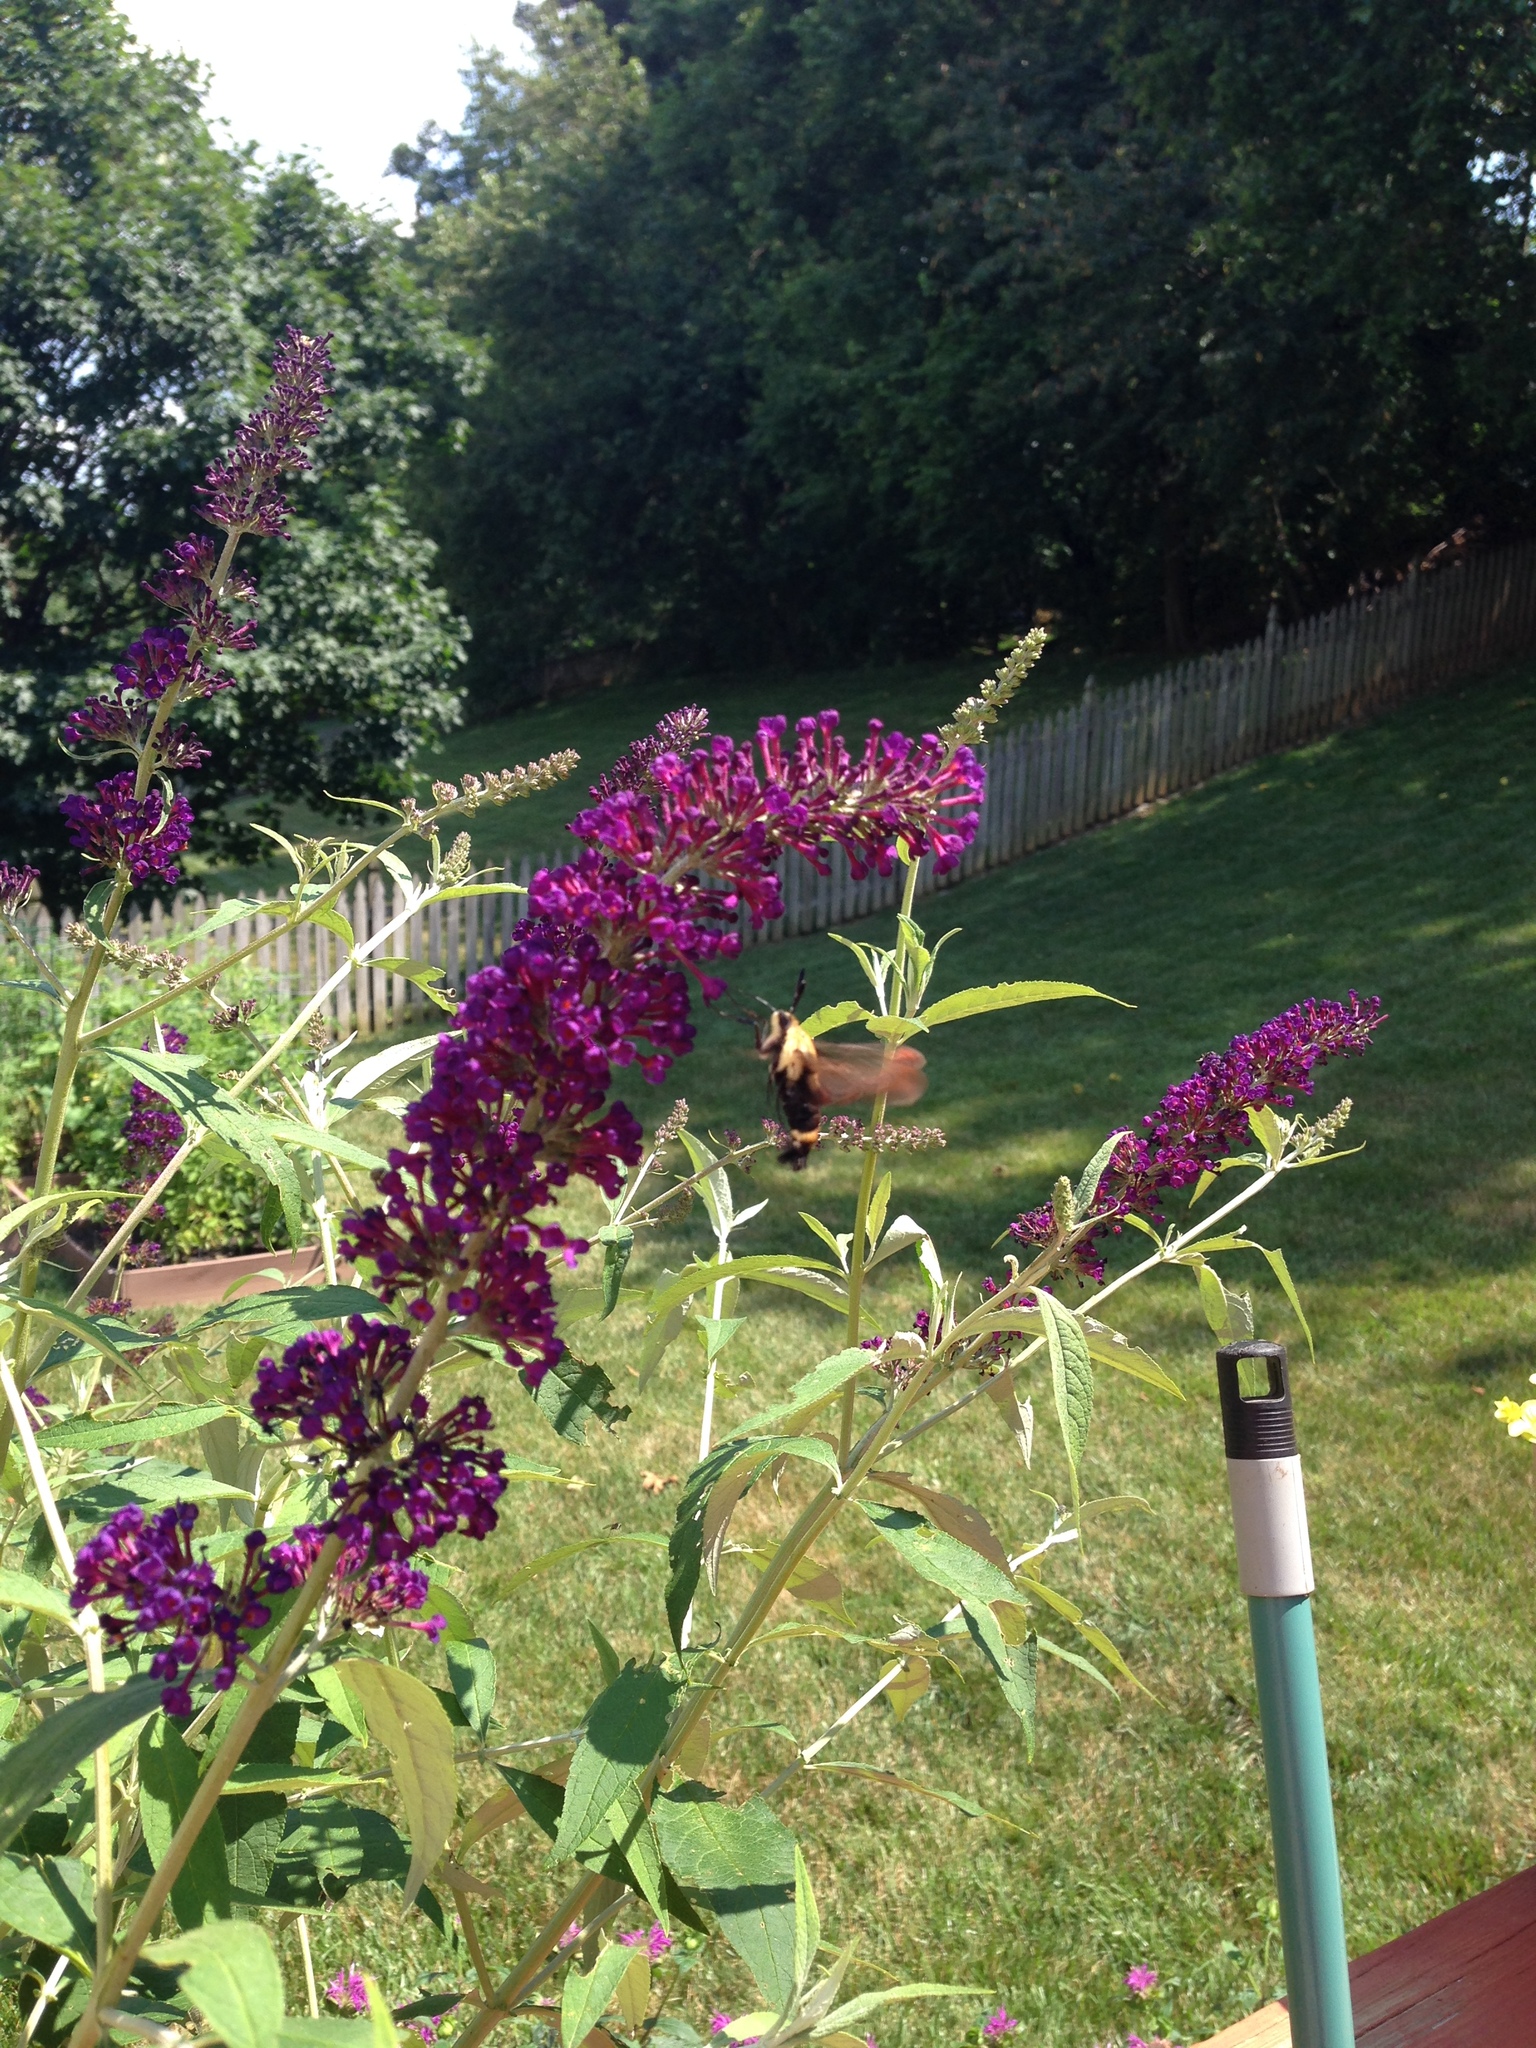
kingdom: Animalia
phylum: Arthropoda
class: Insecta
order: Lepidoptera
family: Sphingidae
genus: Hemaris
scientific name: Hemaris diffinis
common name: Bumblebee moth
